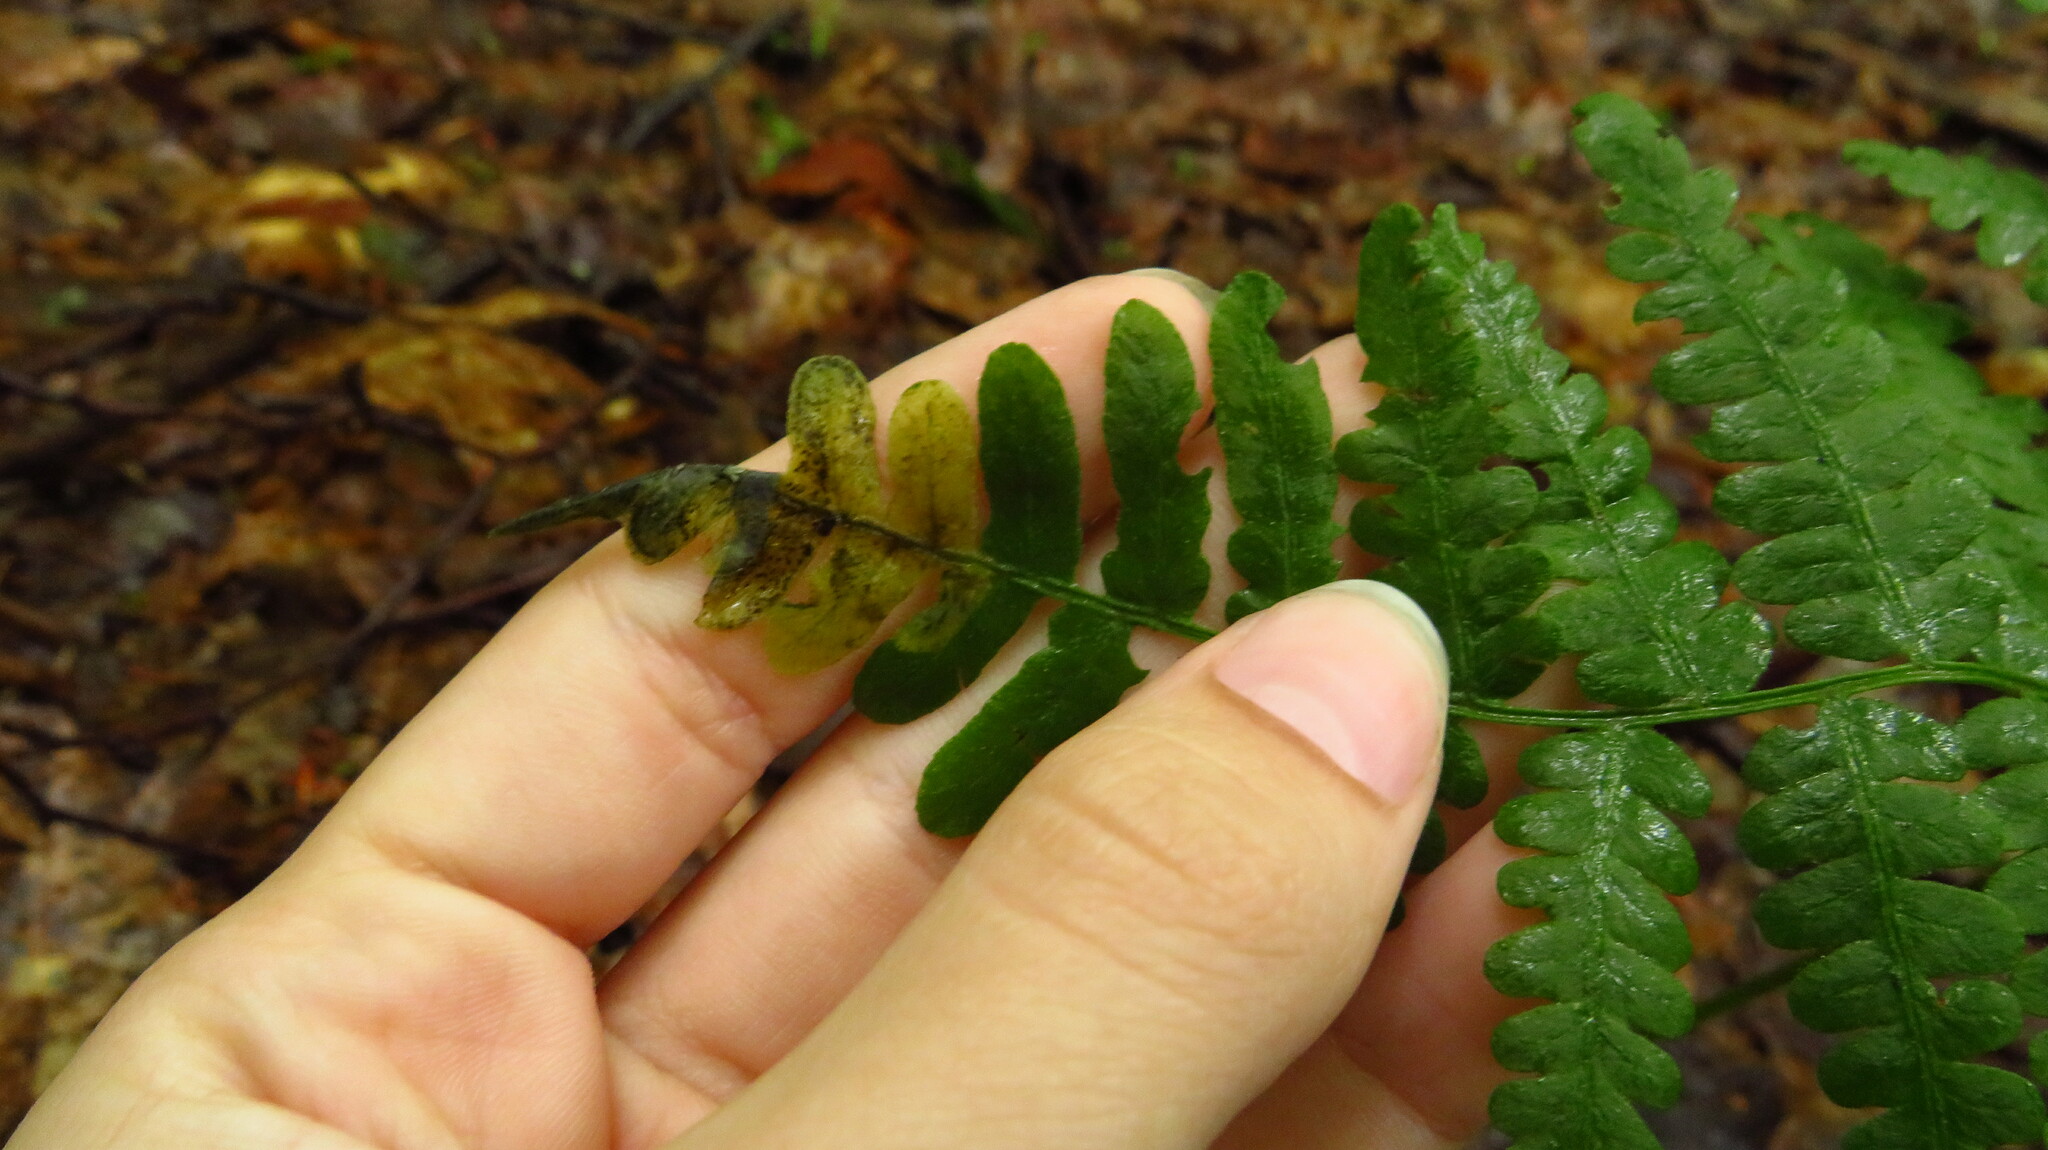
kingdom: Animalia
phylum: Arthropoda
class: Insecta
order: Diptera
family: Anthomyiidae
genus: Chirosia
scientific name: Chirosia
